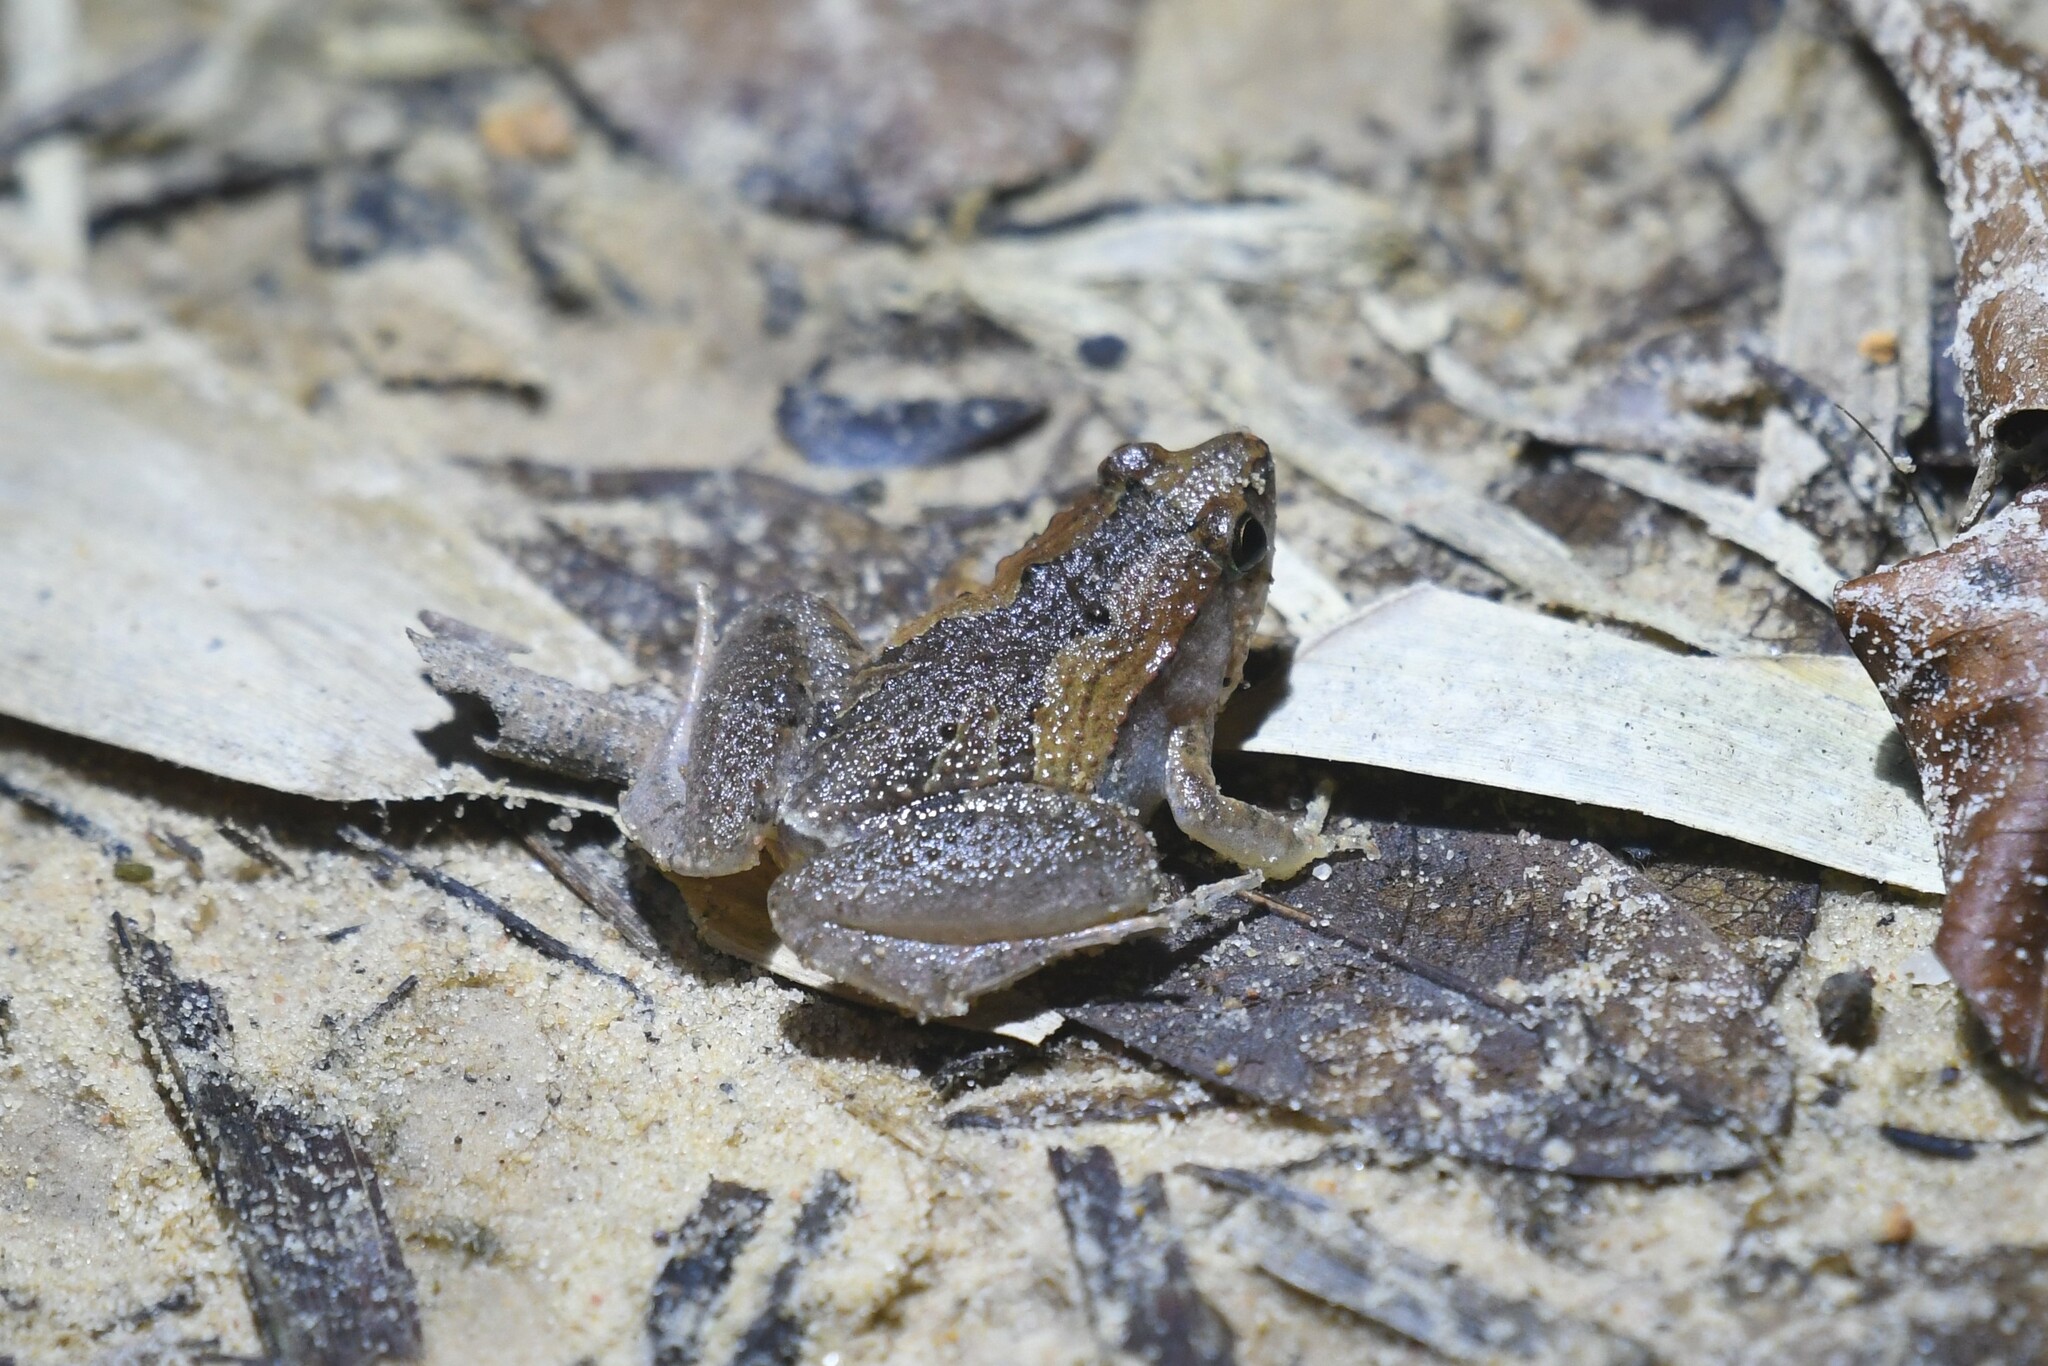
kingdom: Animalia
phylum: Chordata
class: Amphibia
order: Anura
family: Microhylidae
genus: Microhyla
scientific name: Microhyla mukhlesuri
